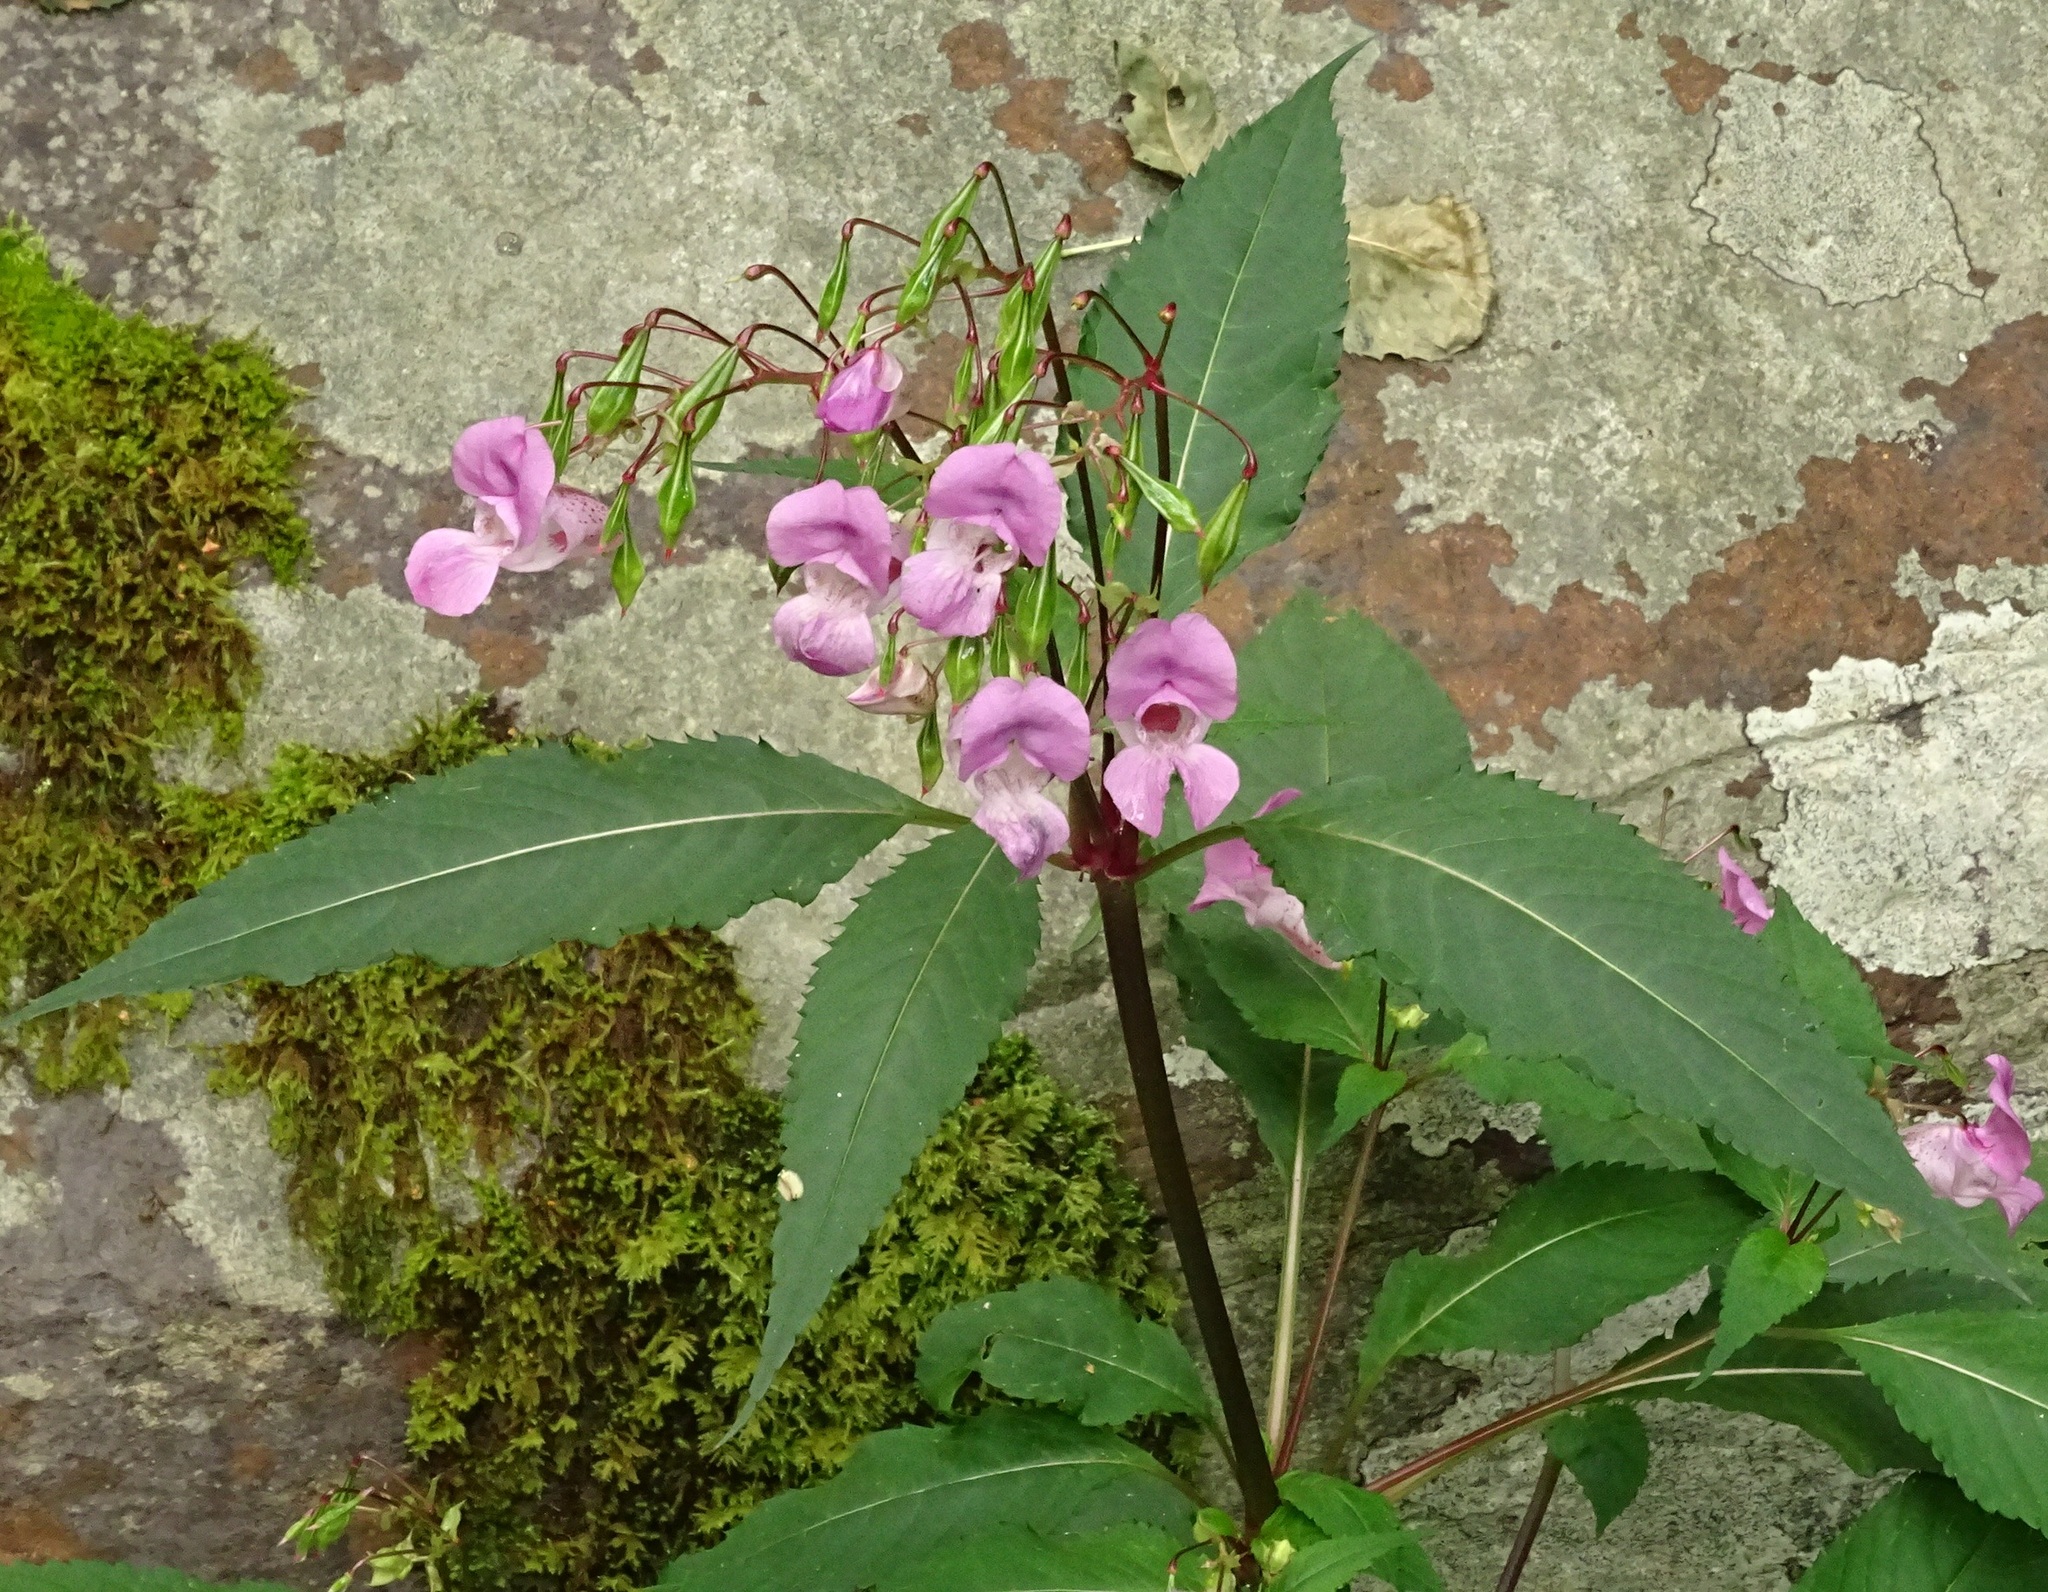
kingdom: Plantae
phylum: Tracheophyta
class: Magnoliopsida
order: Ericales
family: Balsaminaceae
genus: Impatiens
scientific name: Impatiens glandulifera
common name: Himalayan balsam
